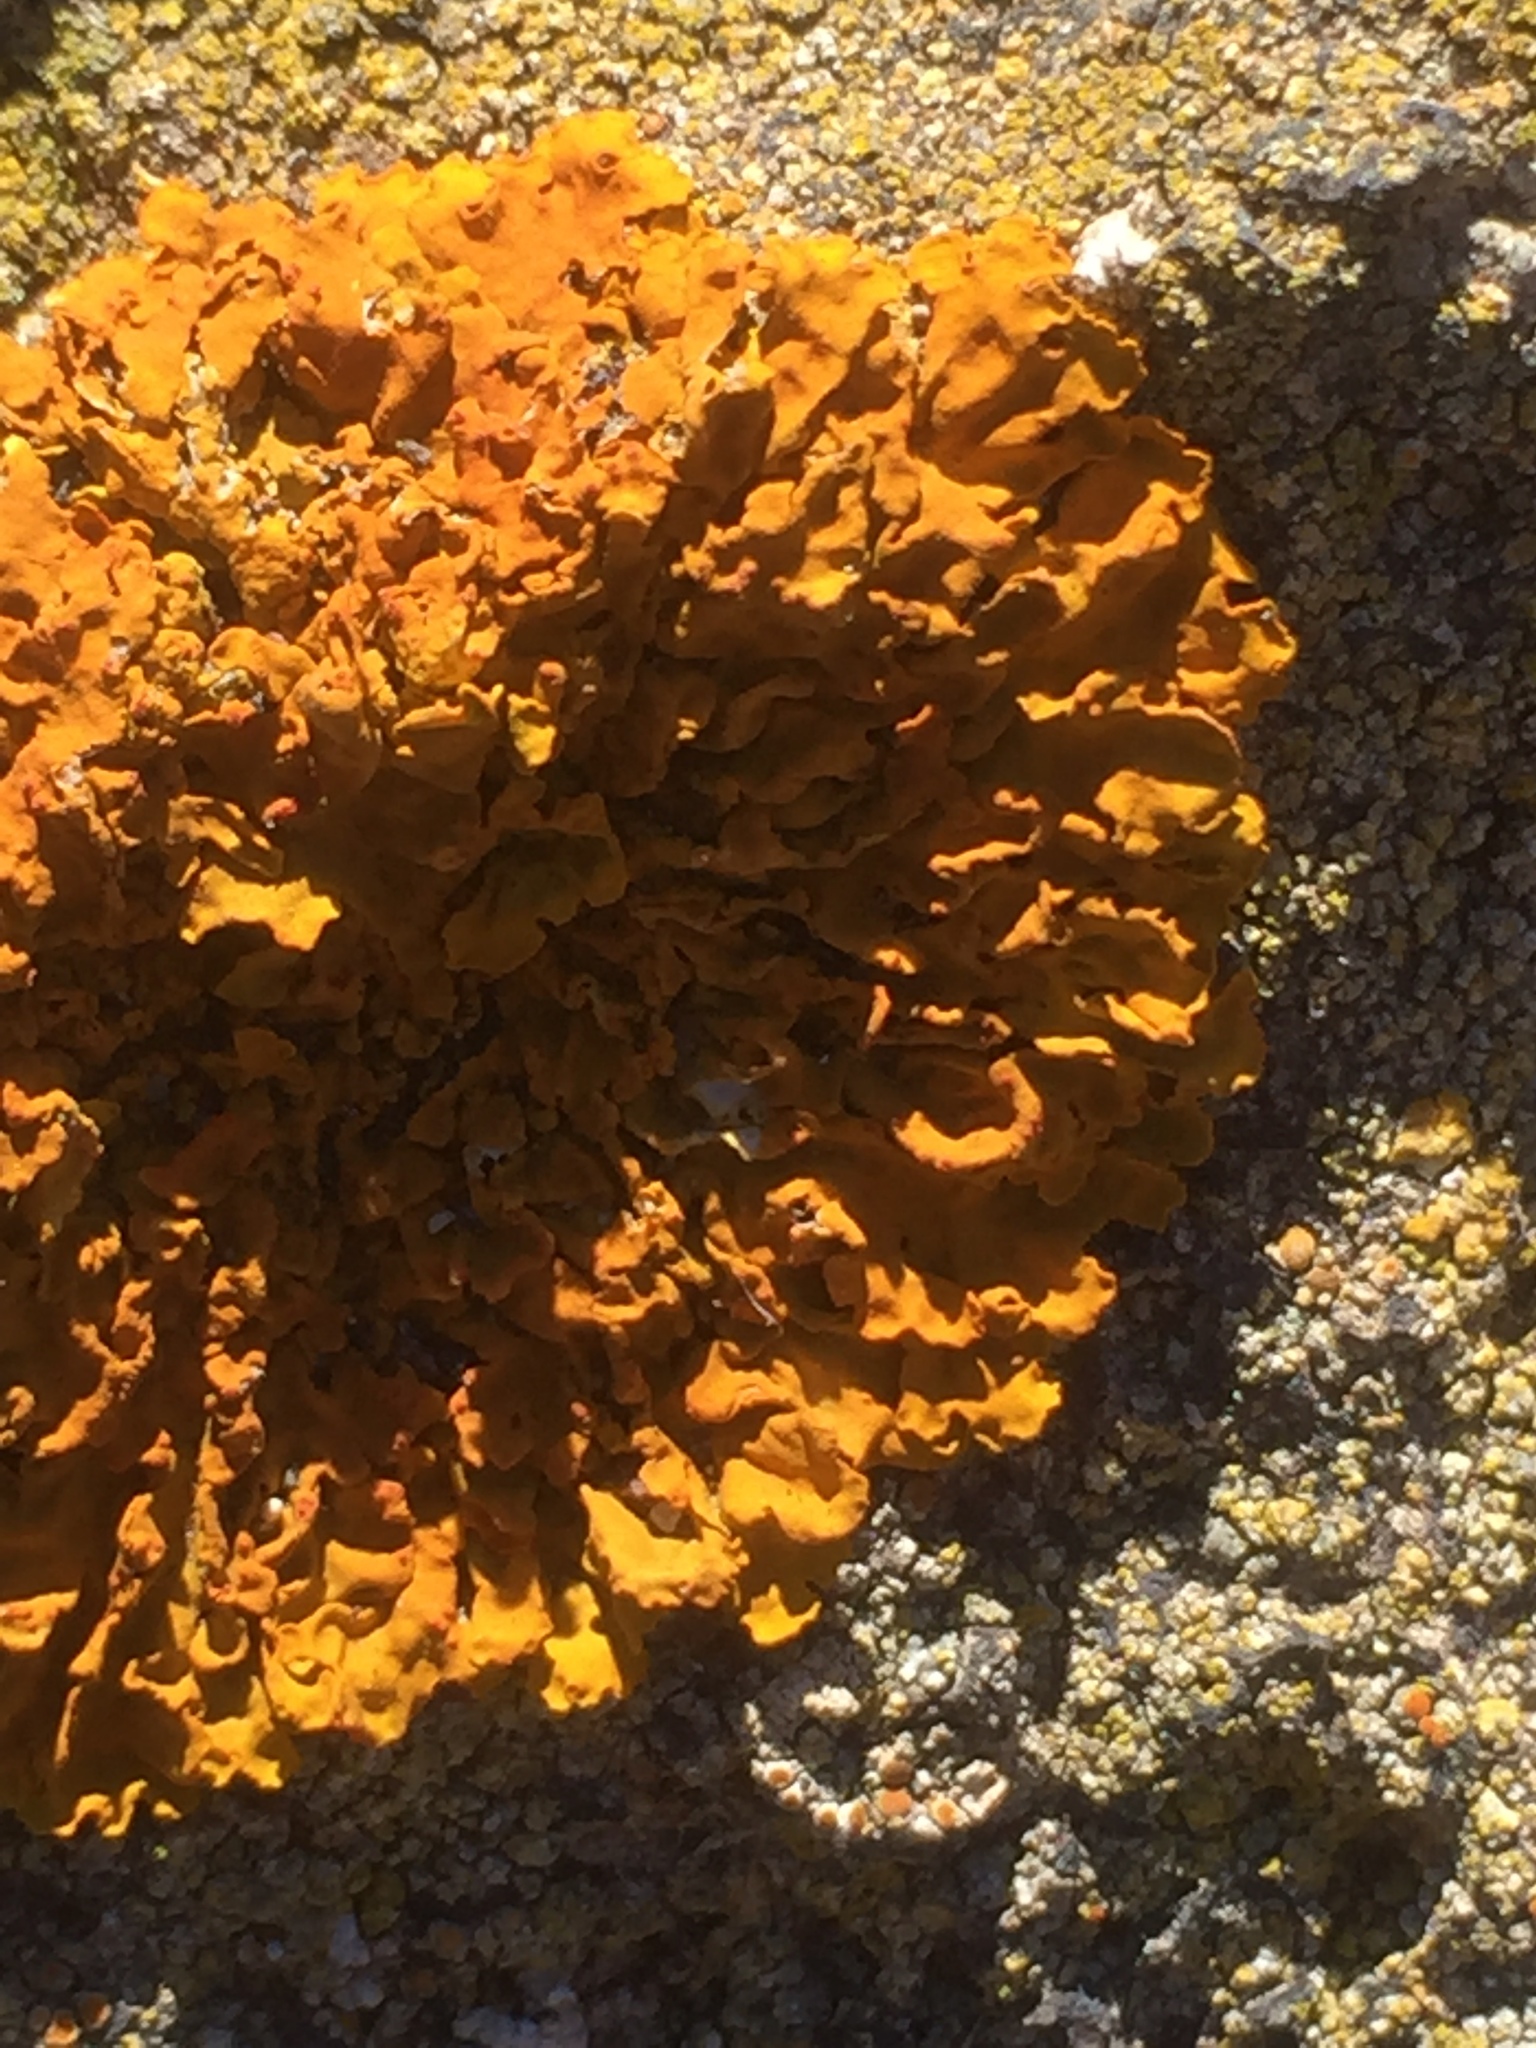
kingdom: Fungi
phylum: Ascomycota
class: Lecanoromycetes
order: Teloschistales
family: Teloschistaceae
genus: Xanthoria
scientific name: Xanthoria parietina
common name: Common orange lichen
